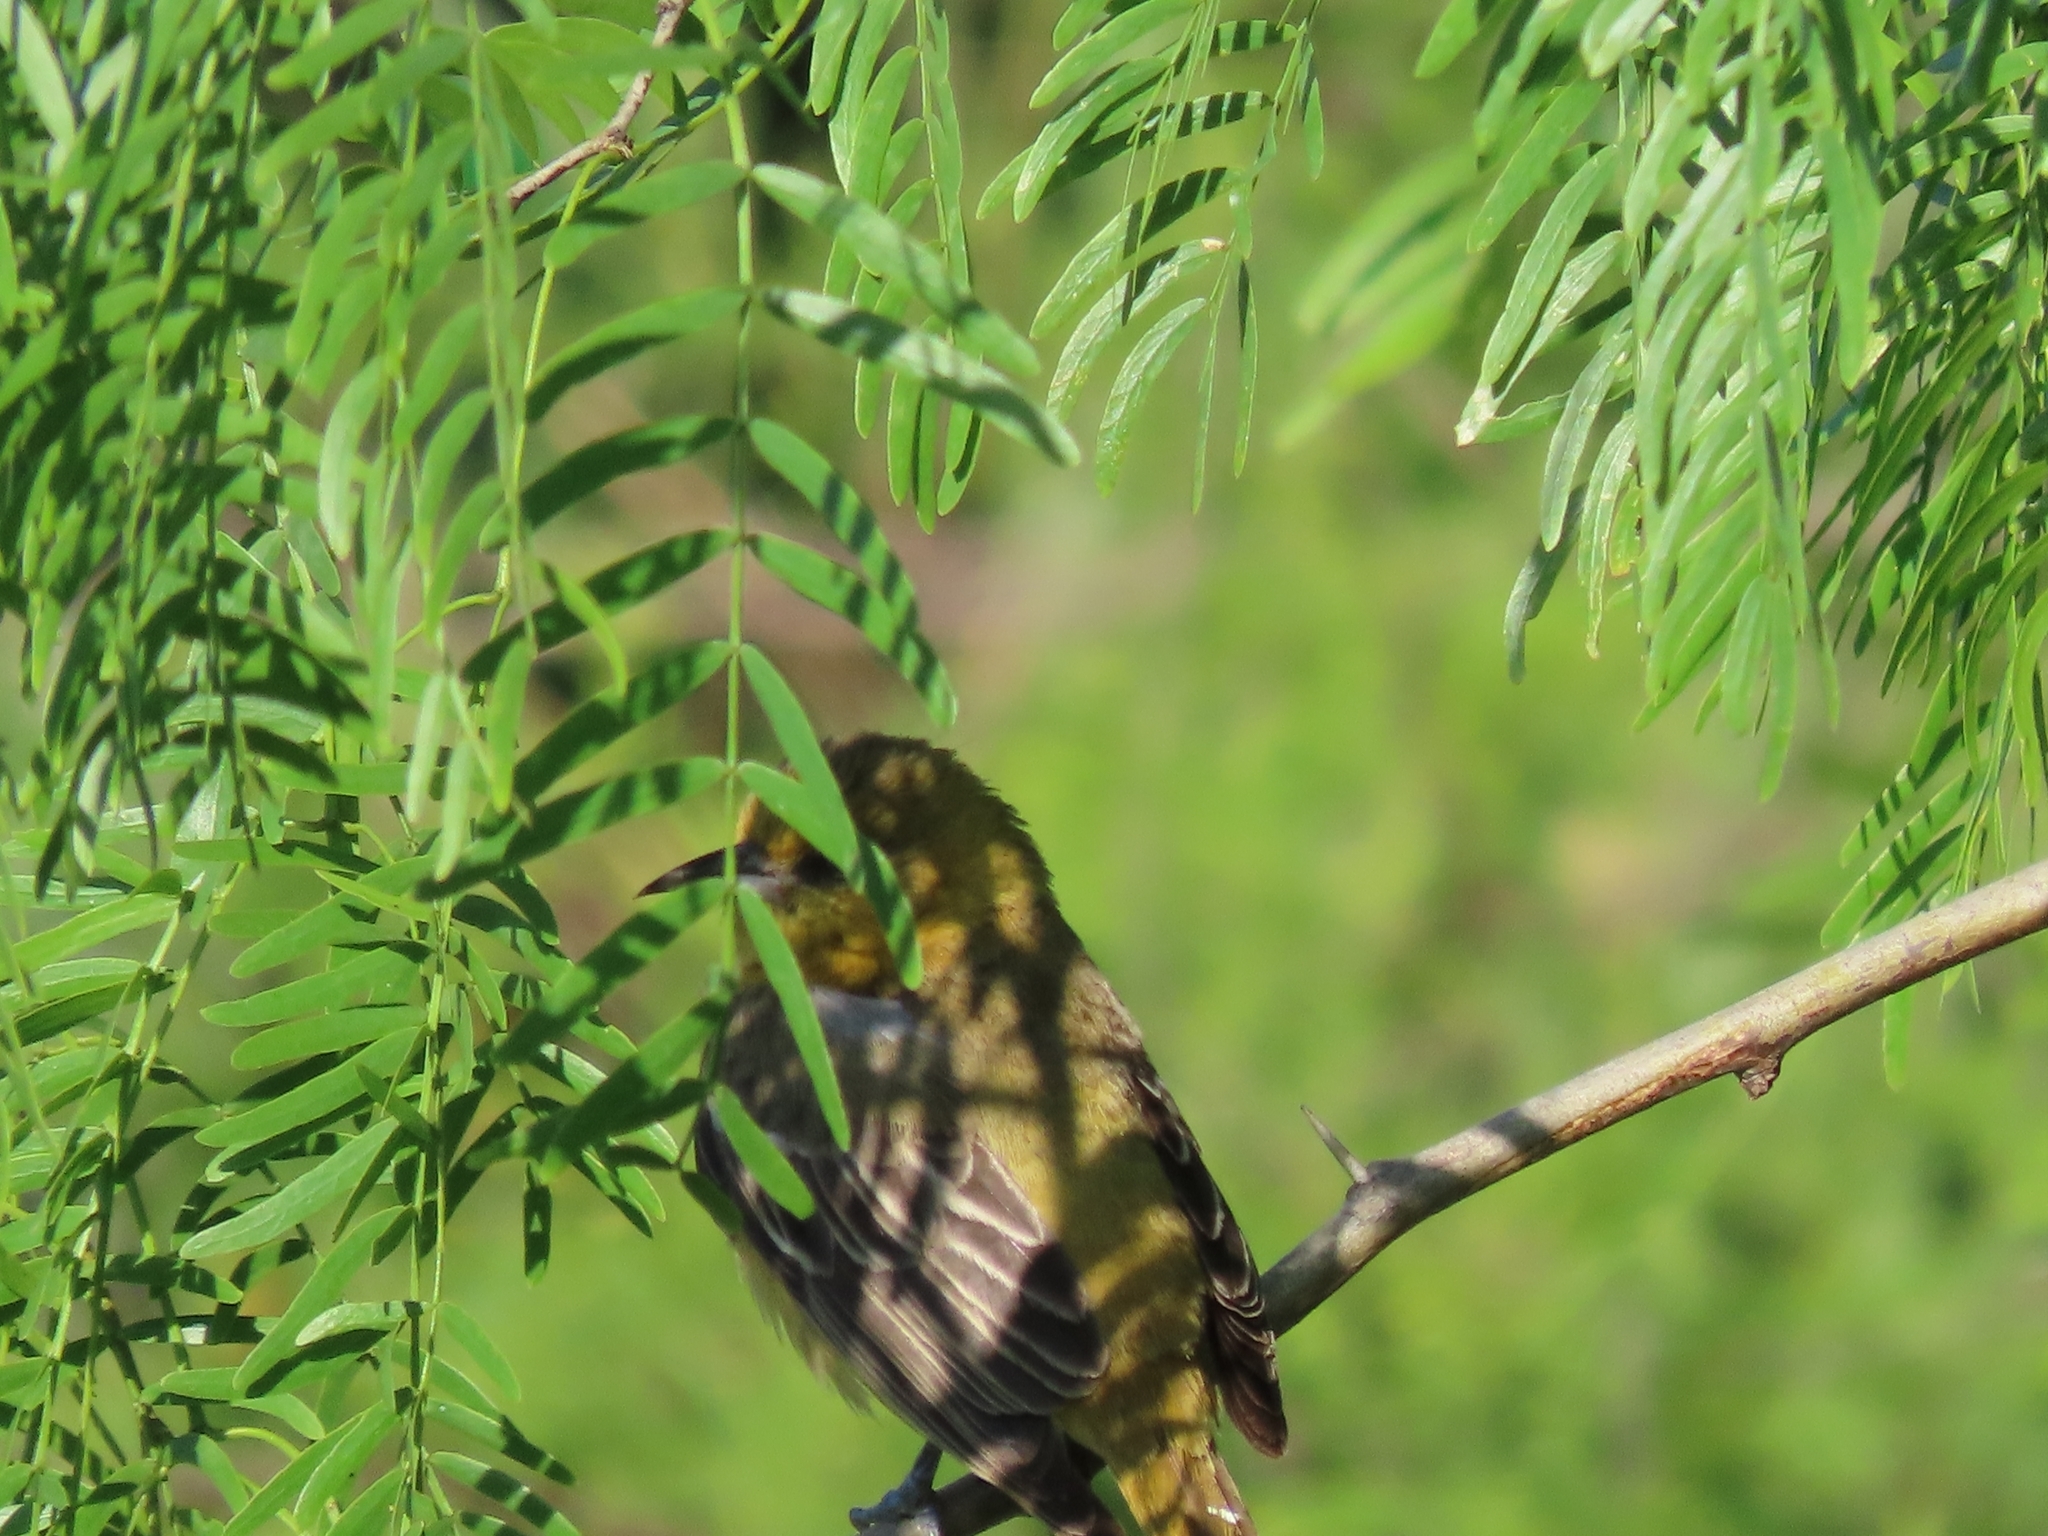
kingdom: Animalia
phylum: Chordata
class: Aves
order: Passeriformes
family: Icteridae
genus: Icterus
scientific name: Icterus spurius
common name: Orchard oriole
